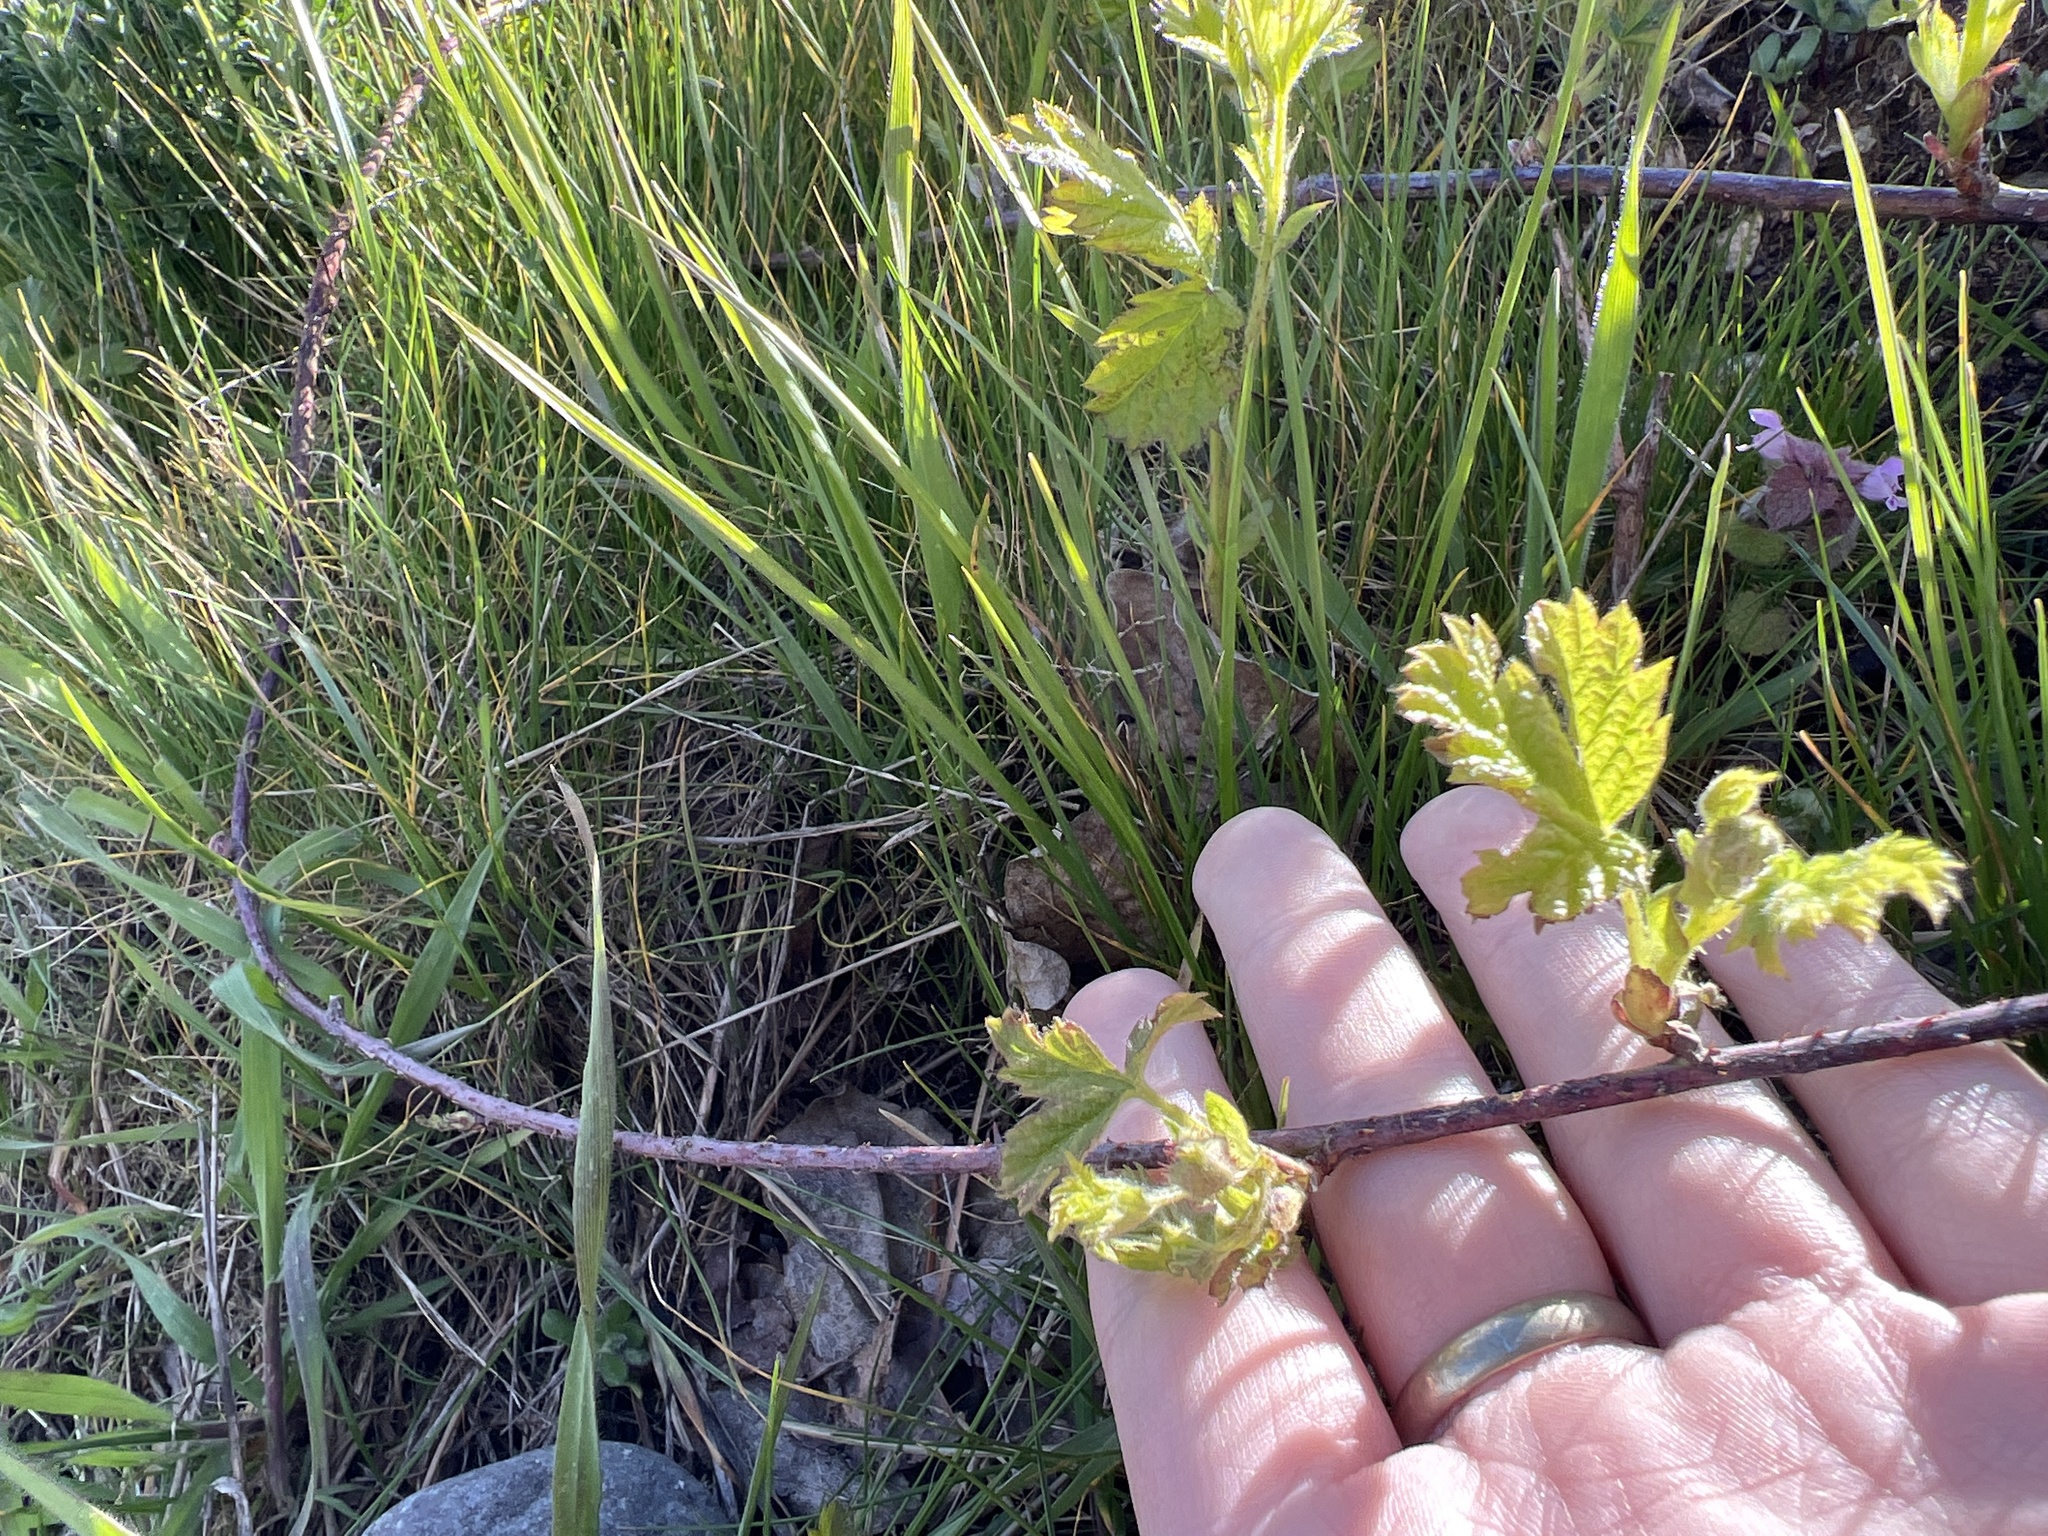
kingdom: Plantae
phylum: Tracheophyta
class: Magnoliopsida
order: Rosales
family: Rosaceae
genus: Rubus
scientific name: Rubus ursinus
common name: Pacific blackberry
